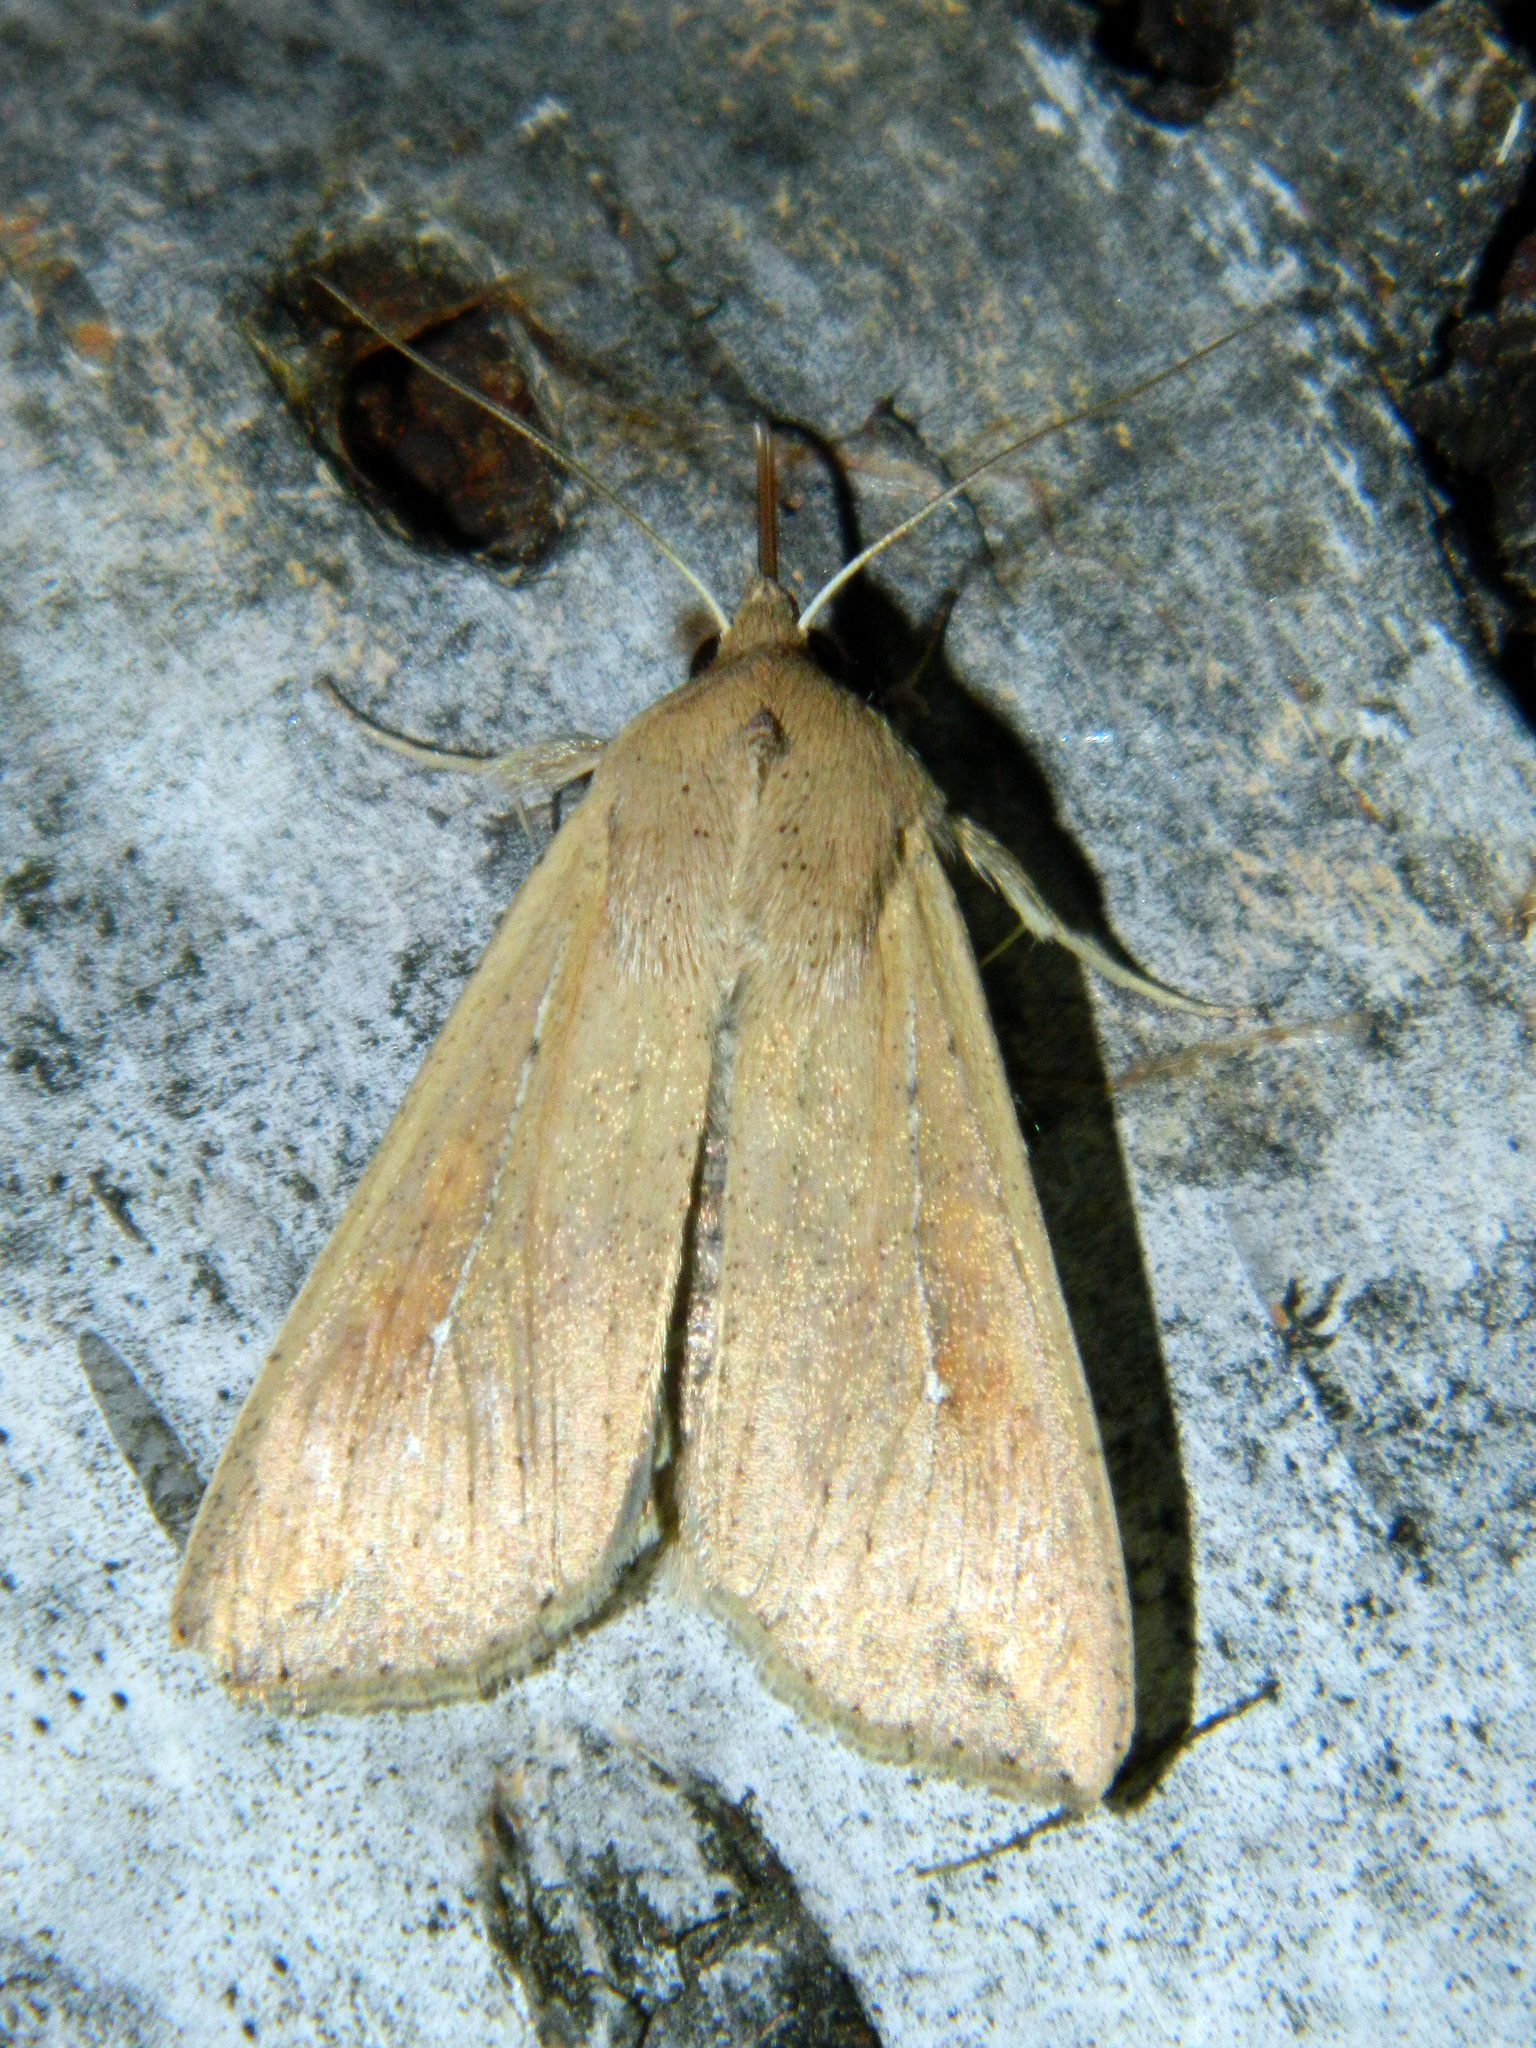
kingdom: Animalia
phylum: Arthropoda
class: Insecta
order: Lepidoptera
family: Noctuidae
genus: Mythimna
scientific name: Mythimna unipuncta
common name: White-speck
